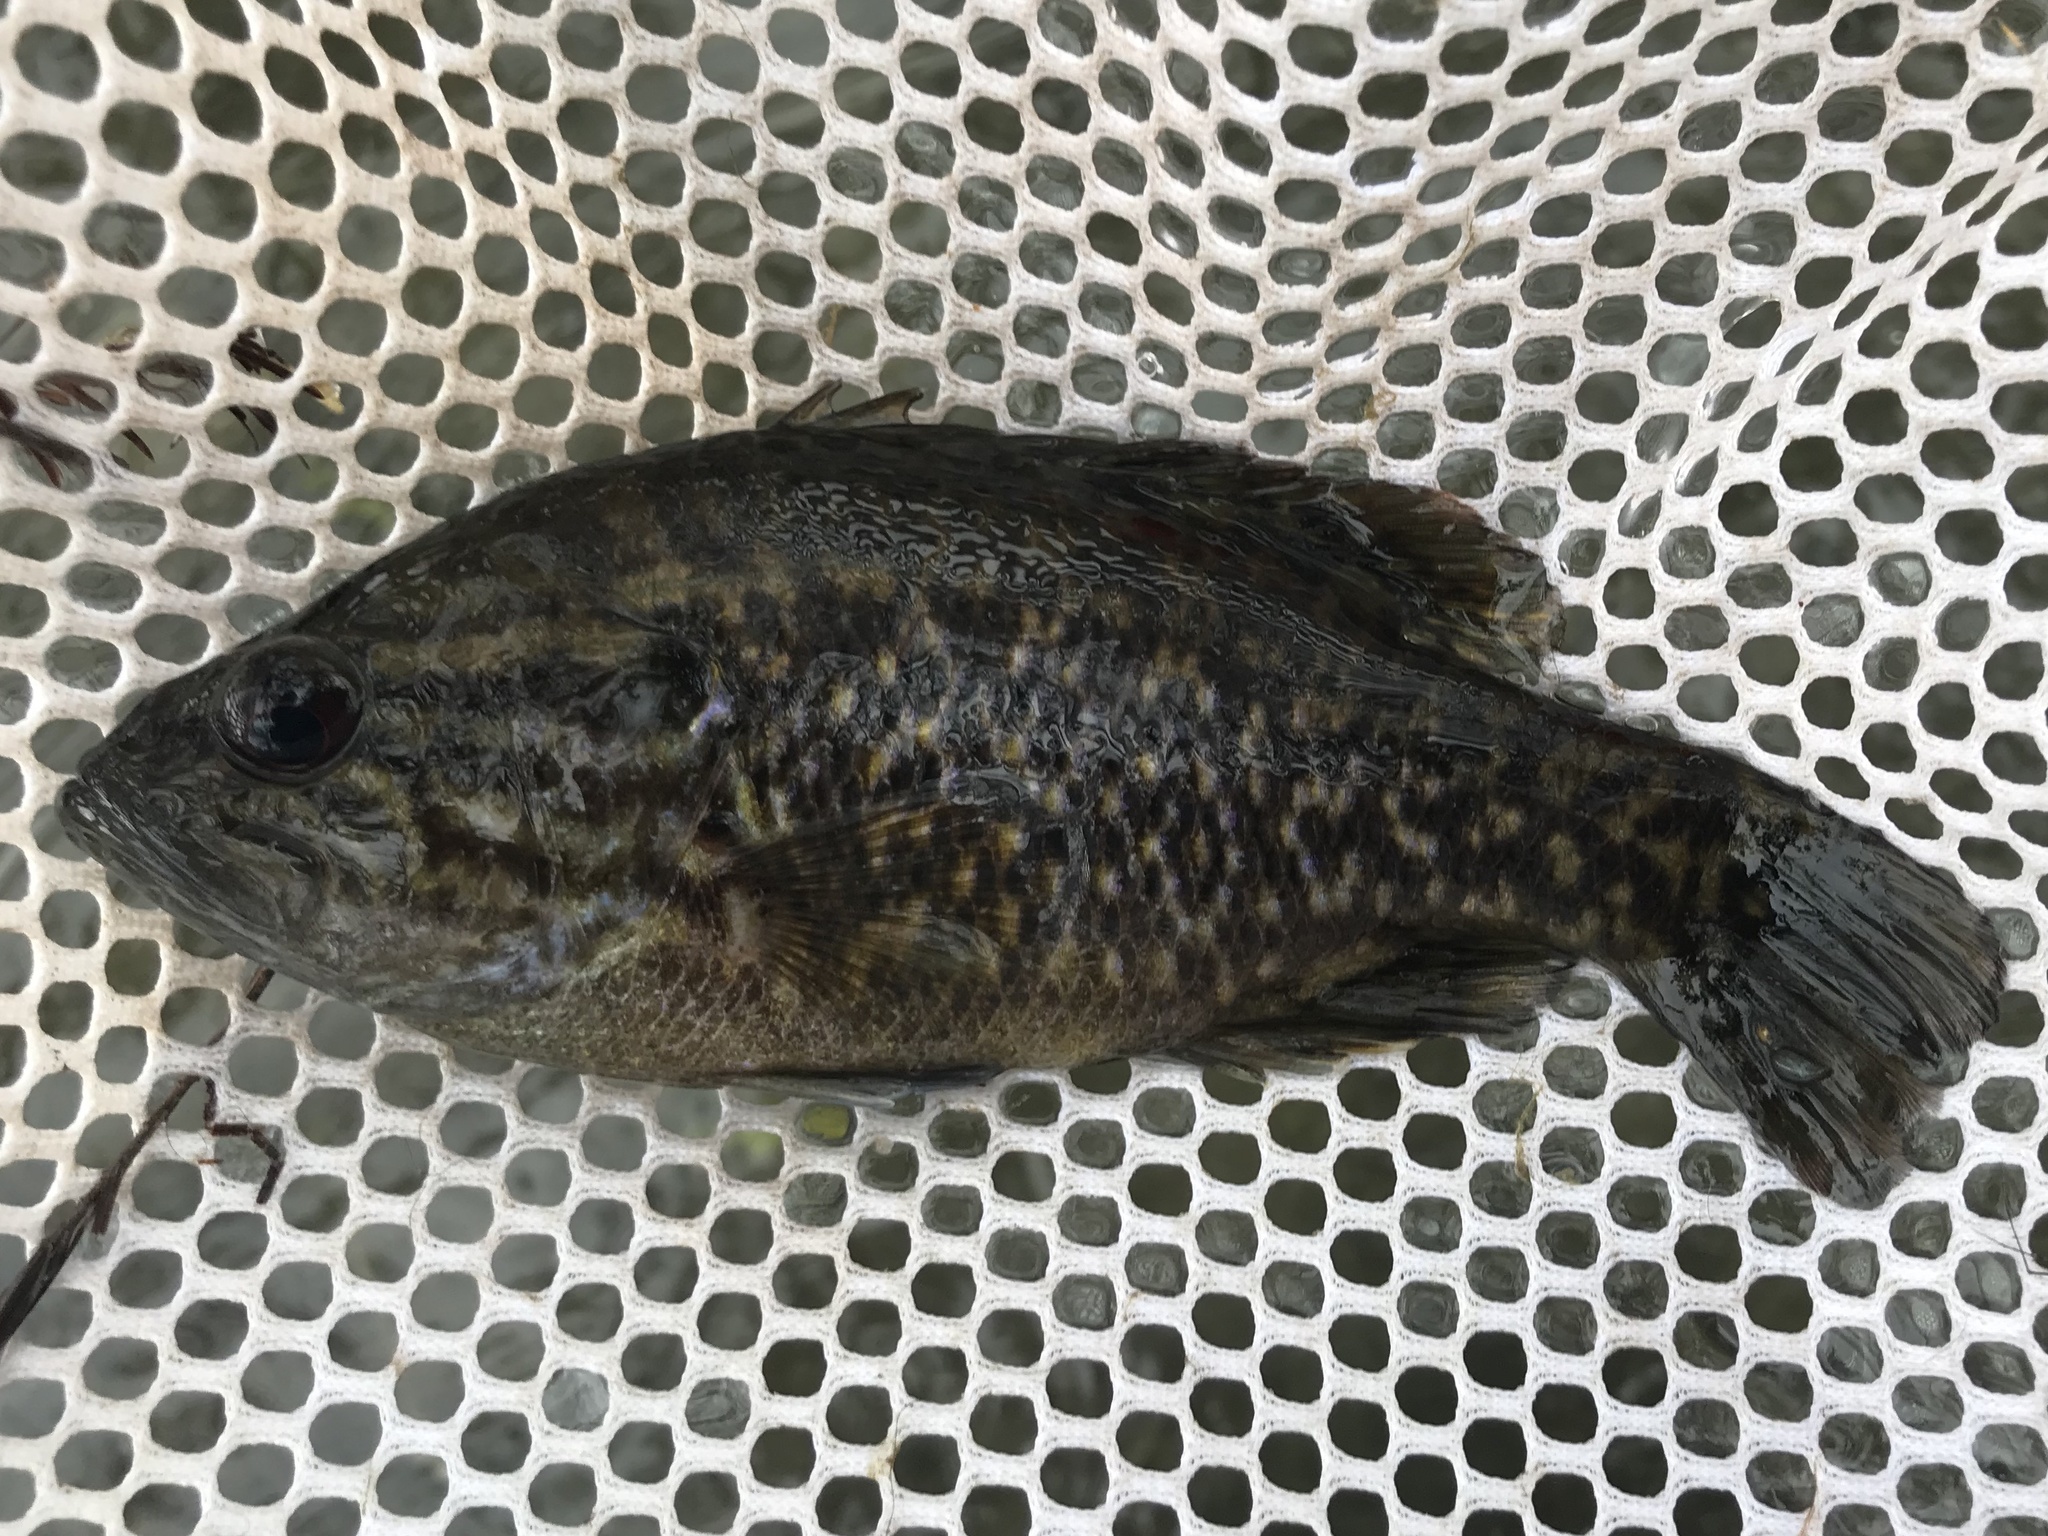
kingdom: Animalia
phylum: Chordata
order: Perciformes
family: Centrarchidae
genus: Lepomis
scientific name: Lepomis gulosus
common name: Warmouth
